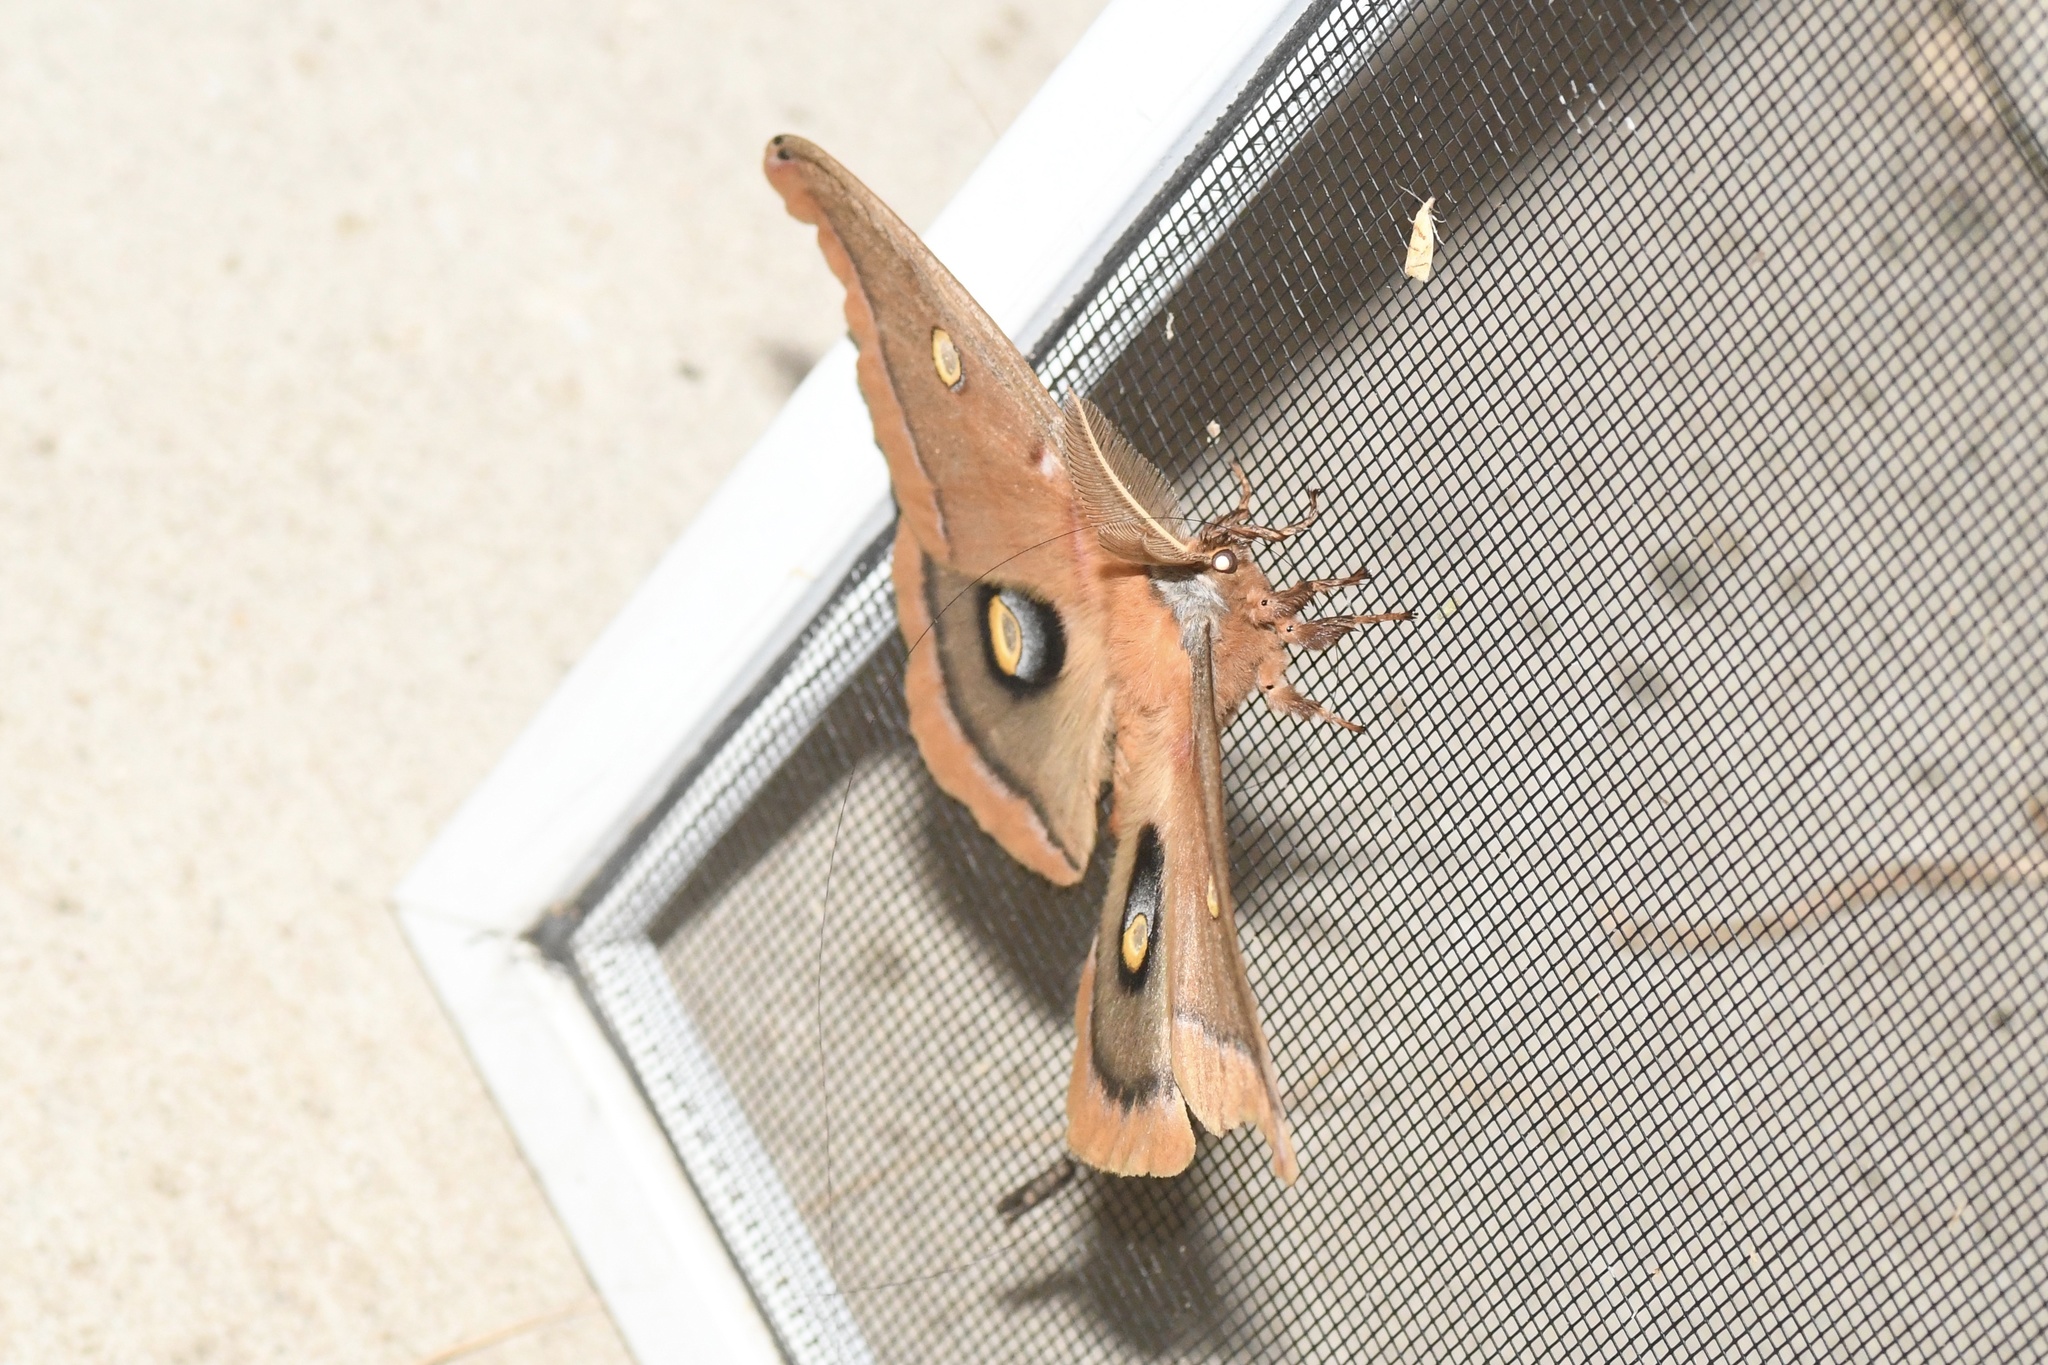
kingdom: Animalia
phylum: Arthropoda
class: Insecta
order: Lepidoptera
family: Saturniidae
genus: Antheraea
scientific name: Antheraea polyphemus
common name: Polyphemus moth
